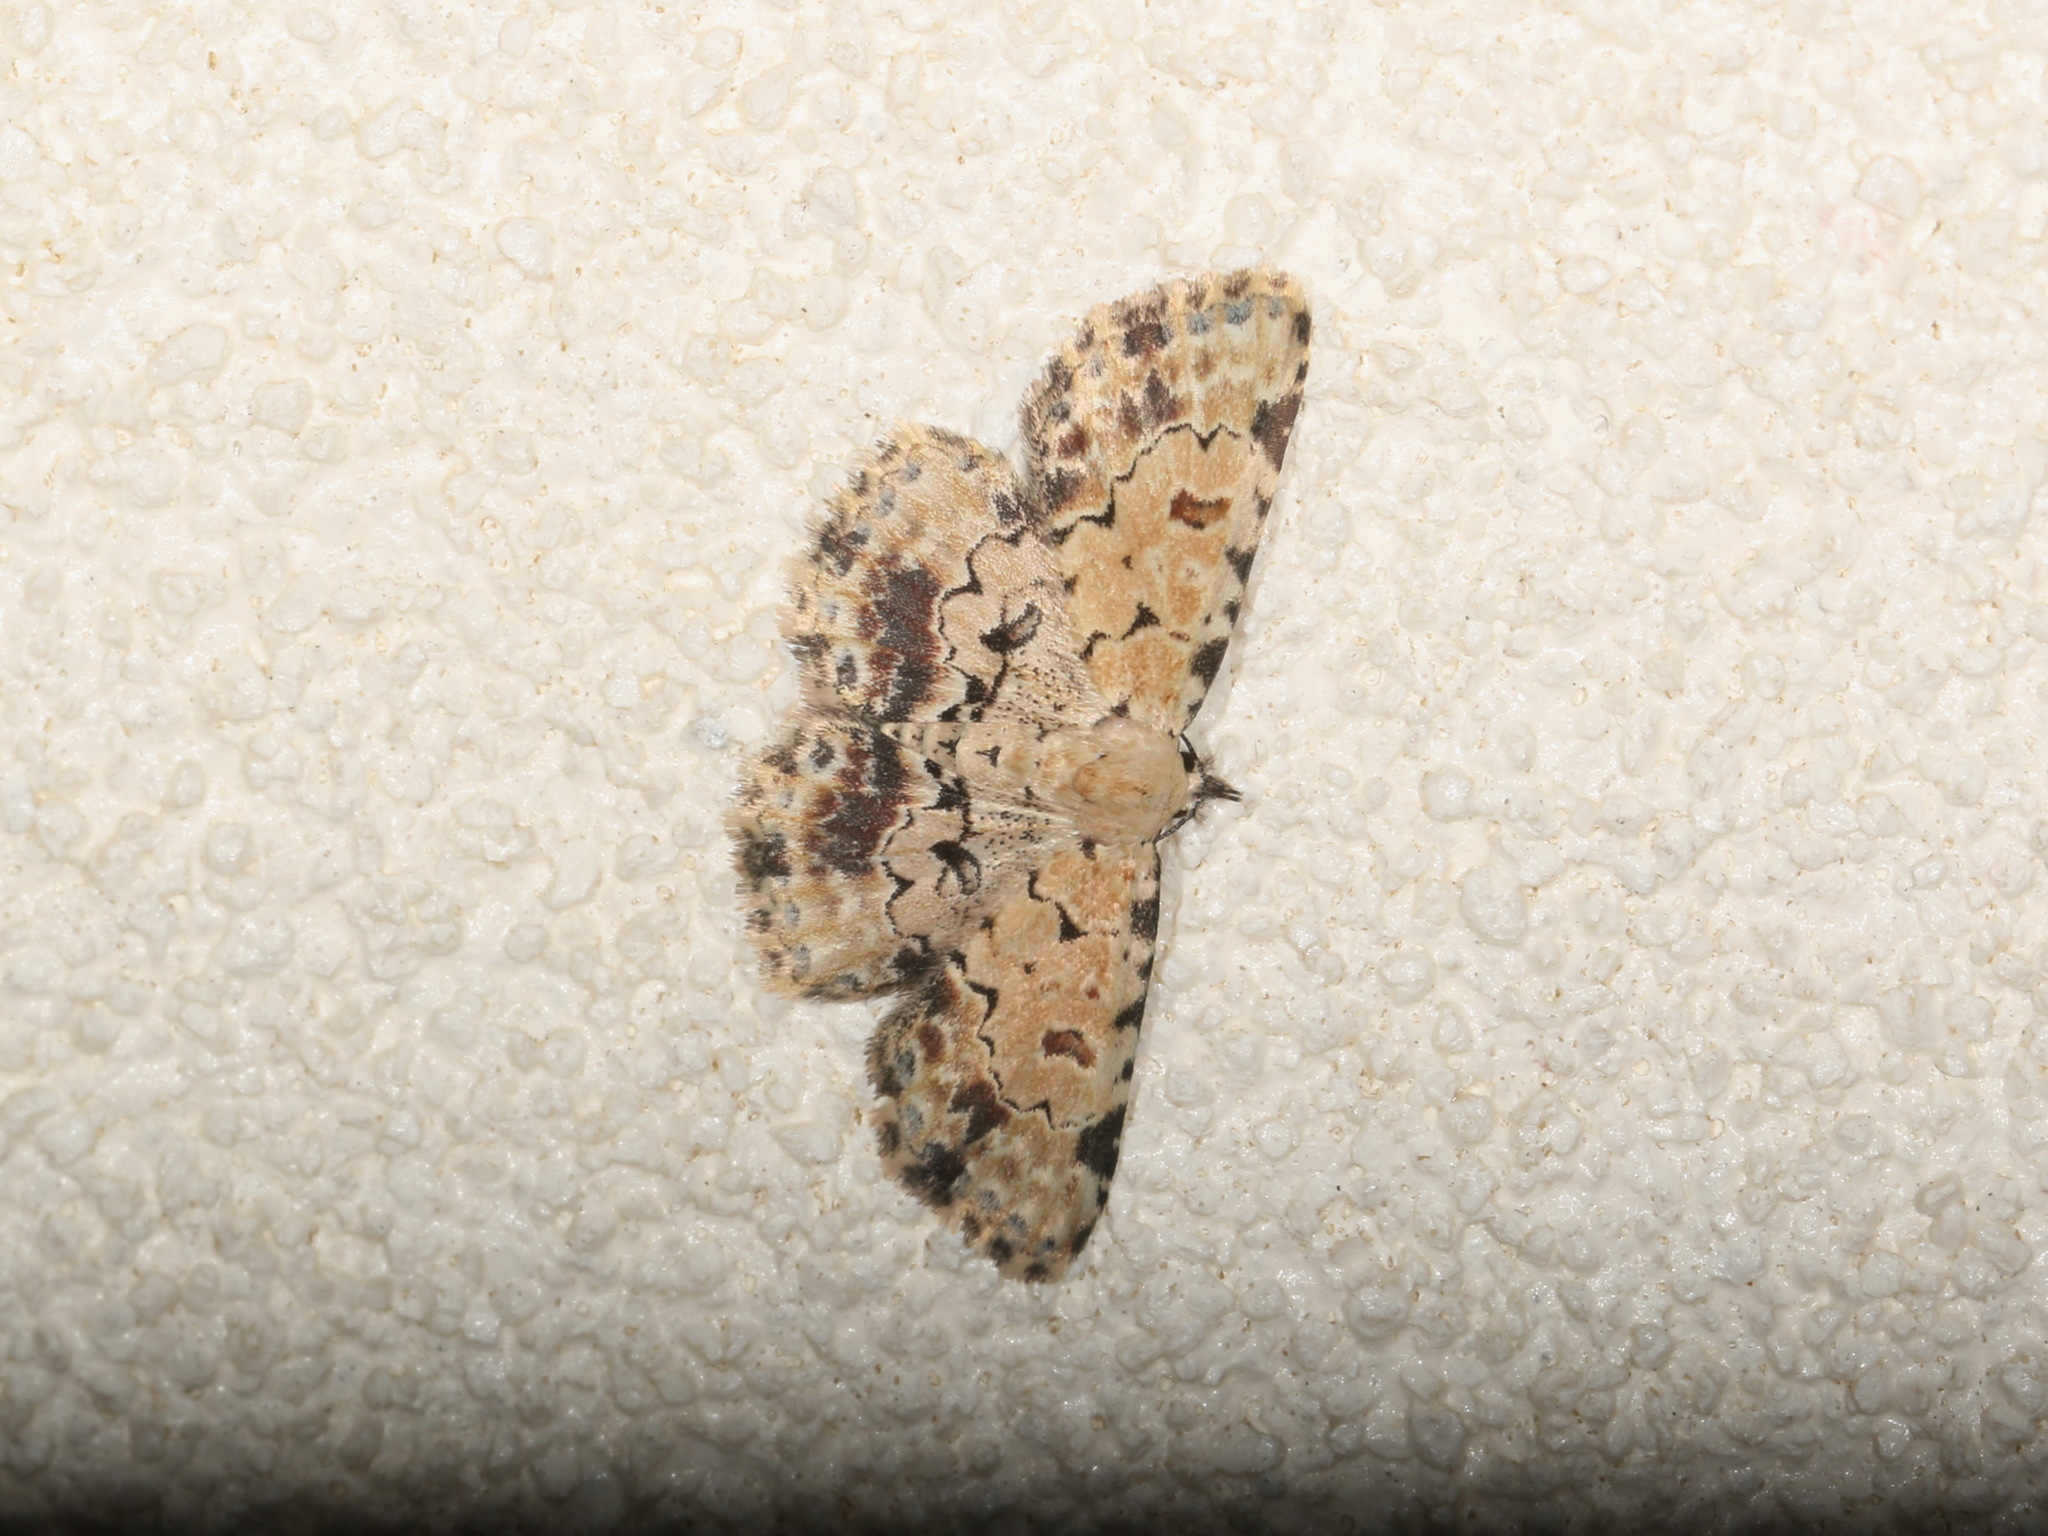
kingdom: Animalia
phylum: Arthropoda
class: Insecta
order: Lepidoptera
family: Erebidae
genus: Sandava
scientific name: Sandava scitisignata
